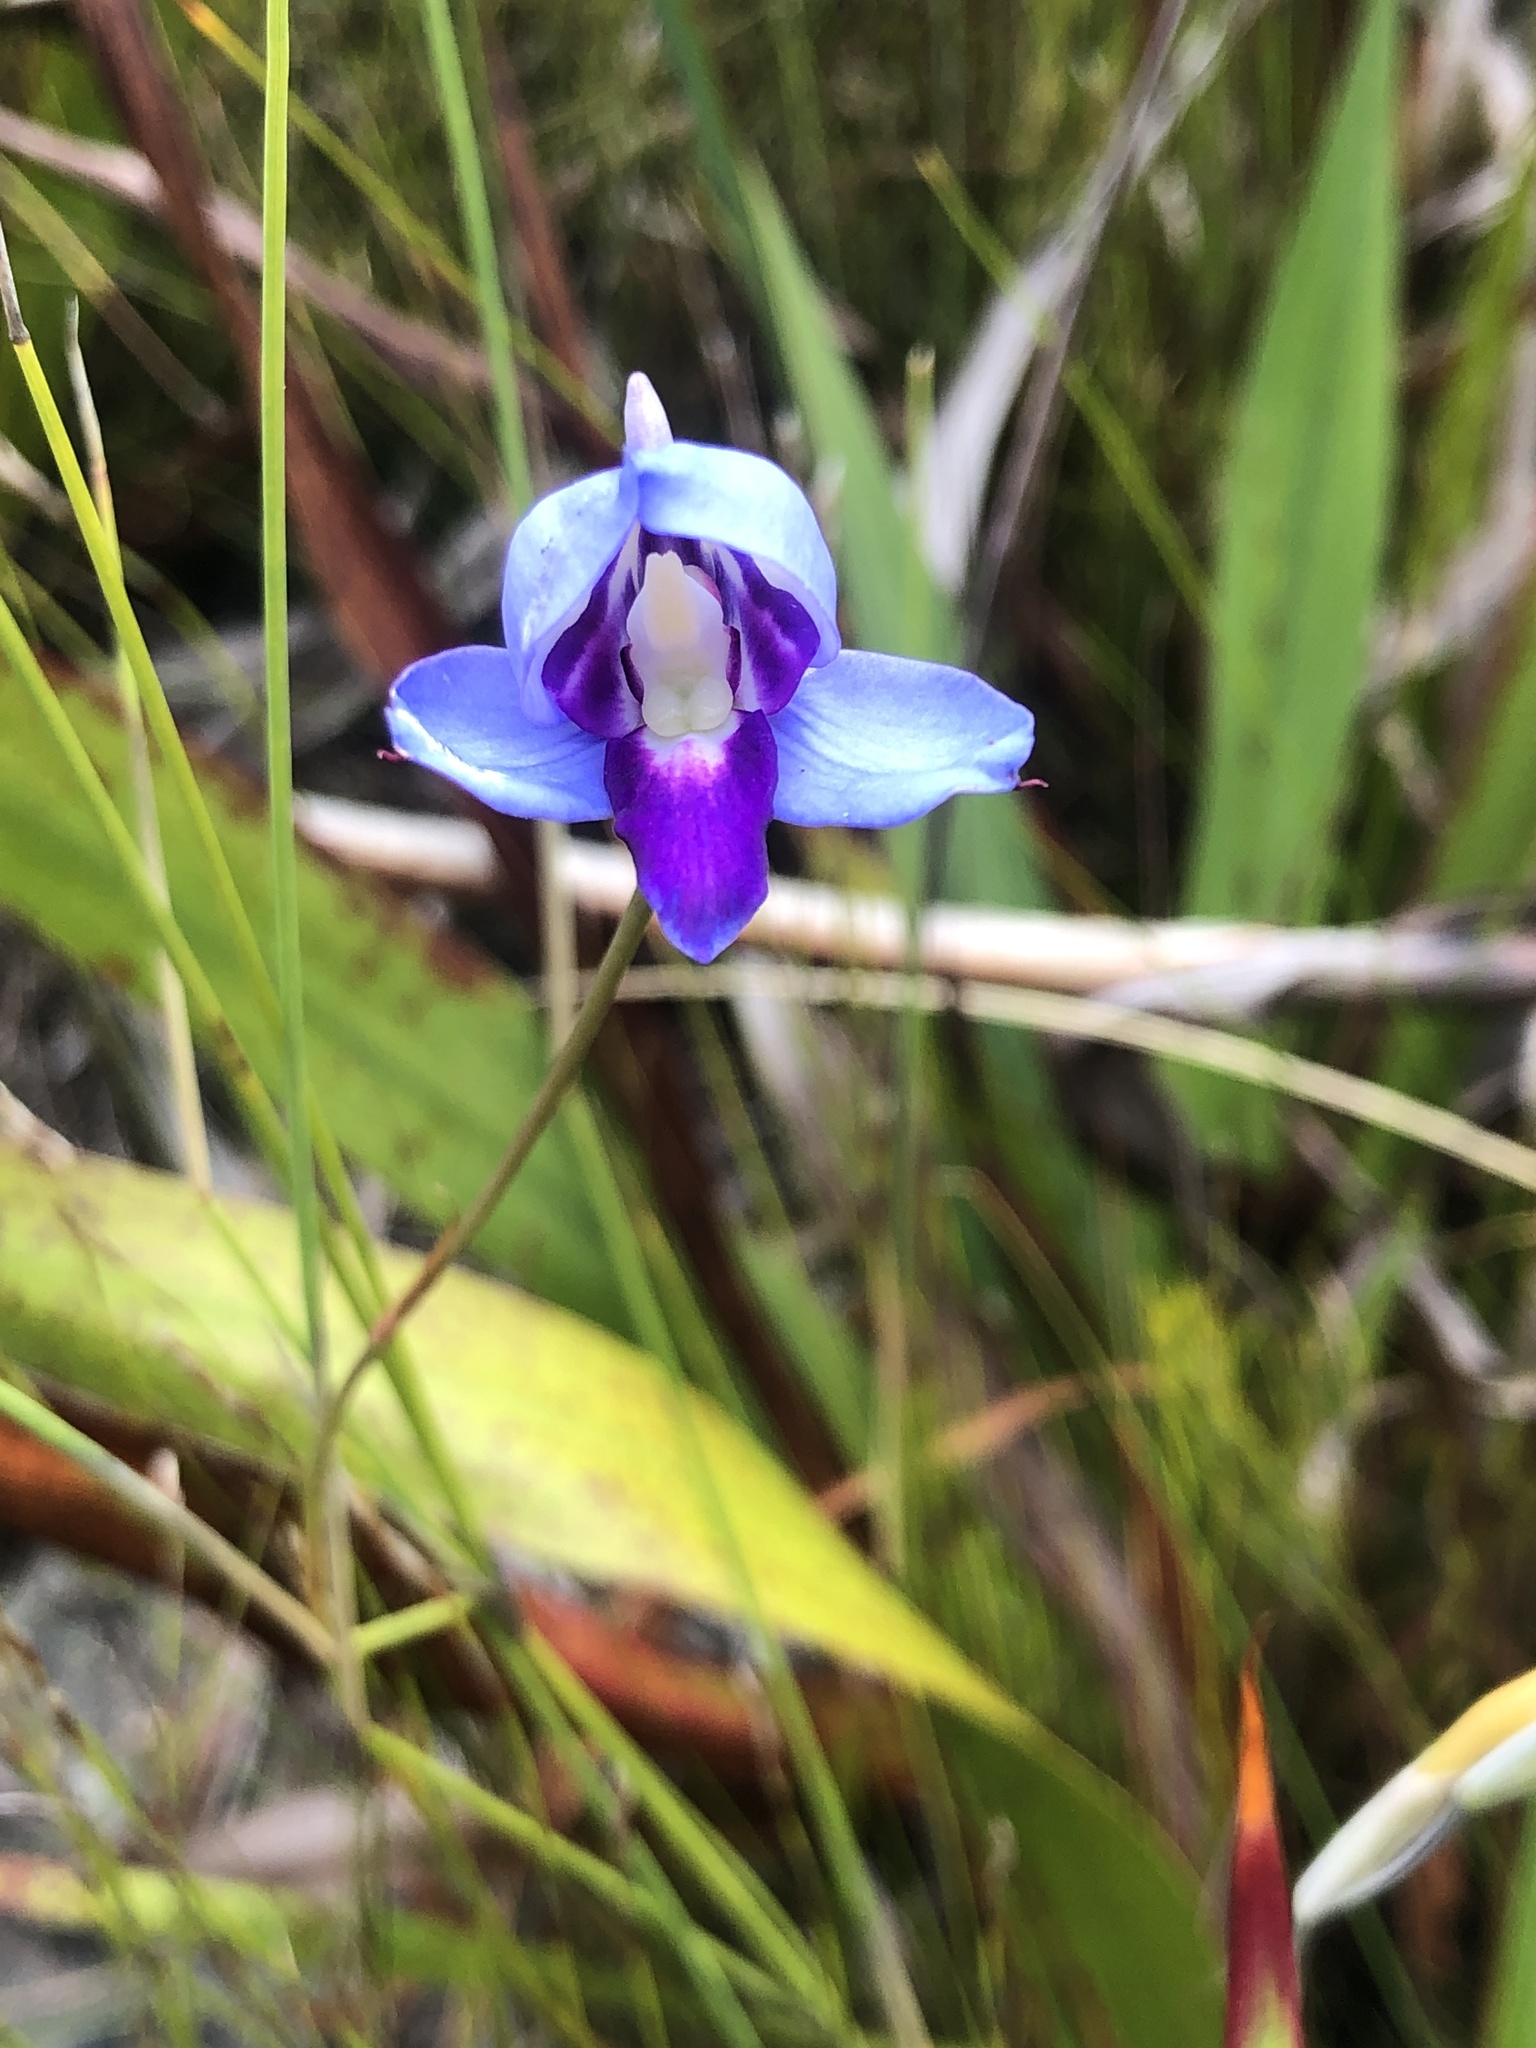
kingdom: Plantae
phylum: Tracheophyta
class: Liliopsida
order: Asparagales
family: Orchidaceae
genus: Disa
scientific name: Disa graminifolia
